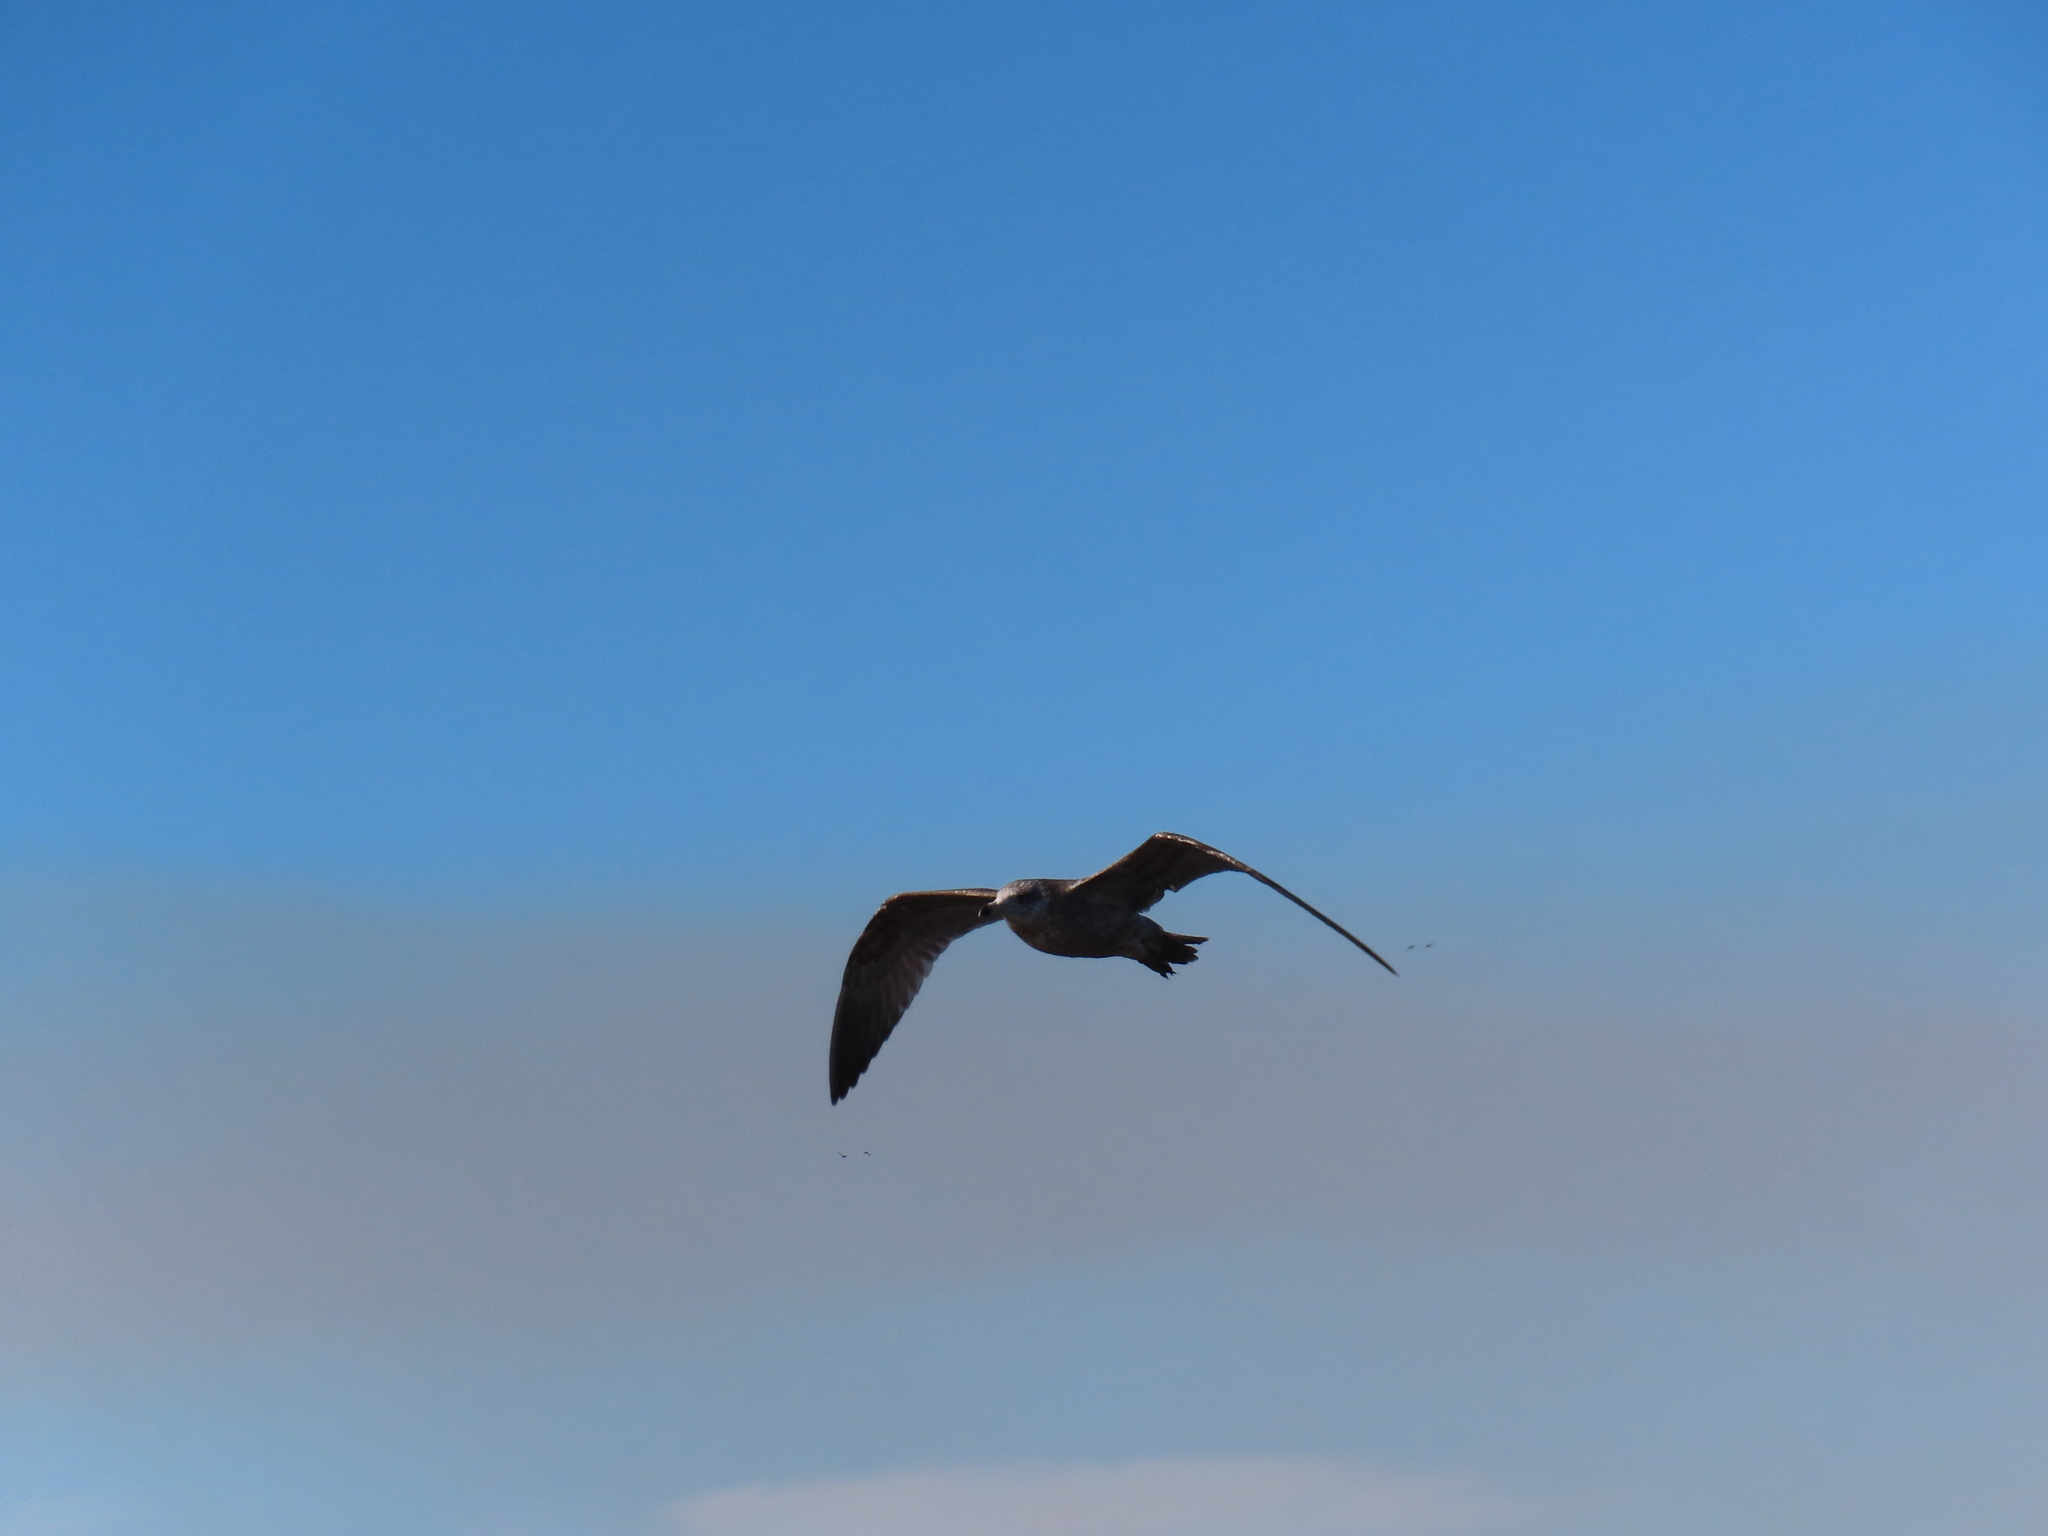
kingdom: Animalia
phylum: Chordata
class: Aves
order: Charadriiformes
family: Laridae
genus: Larus
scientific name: Larus argentatus
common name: Herring gull
